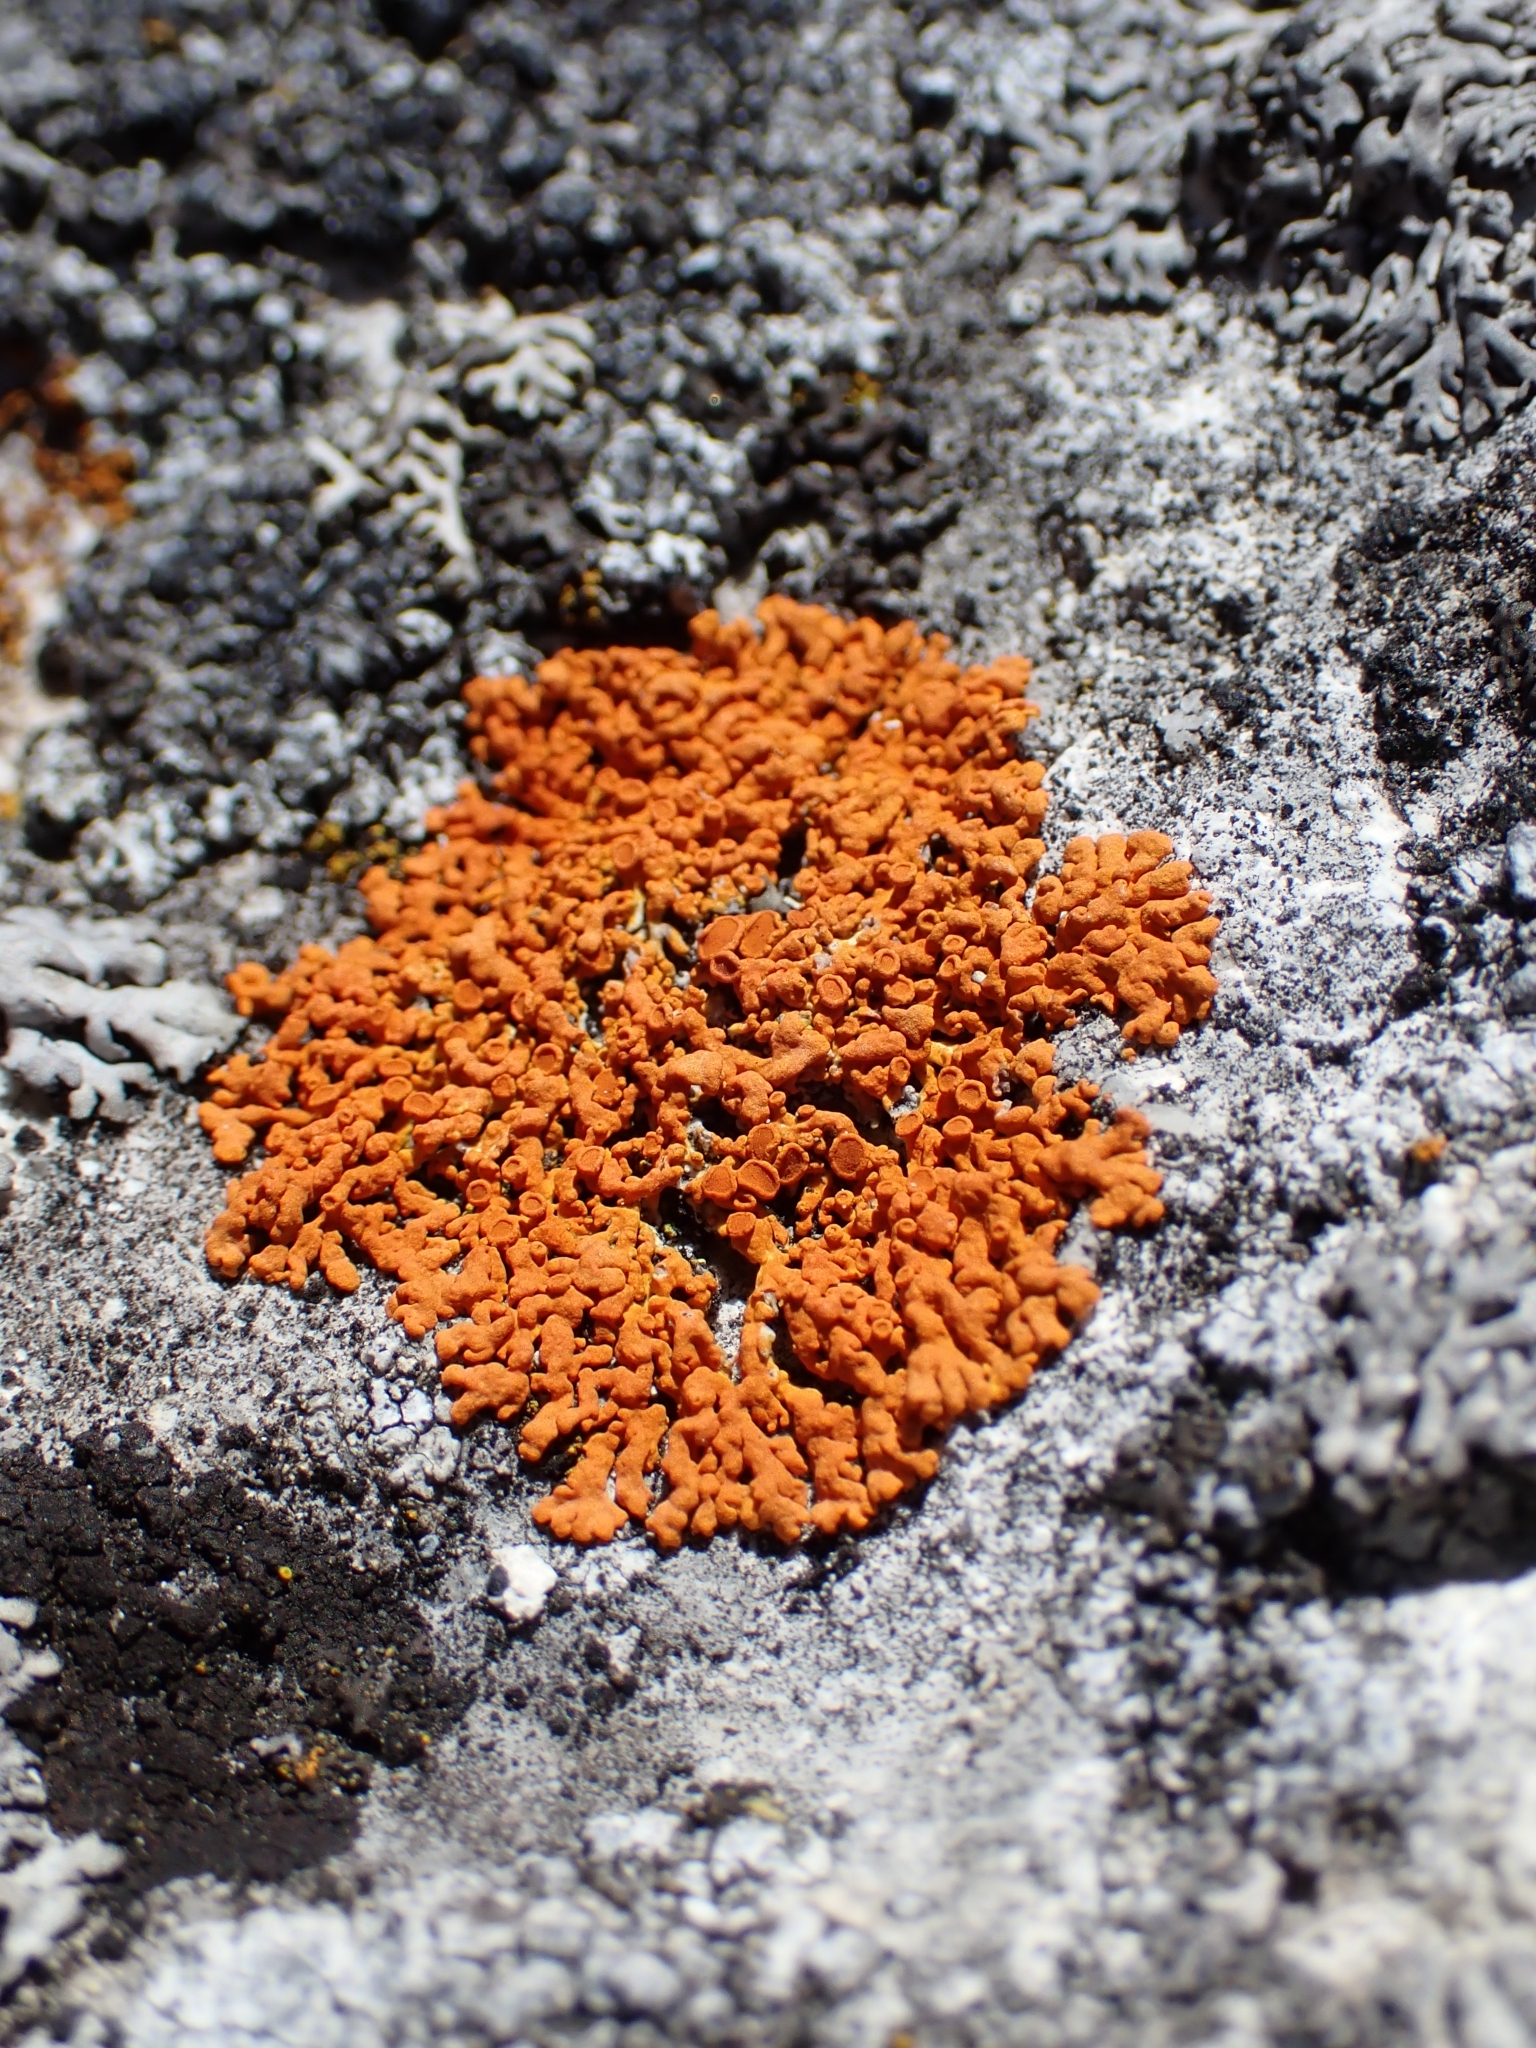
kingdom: Fungi
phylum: Ascomycota
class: Lecanoromycetes
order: Teloschistales
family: Teloschistaceae
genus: Xanthoria
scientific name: Xanthoria elegans
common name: Elegant sunburst lichen
